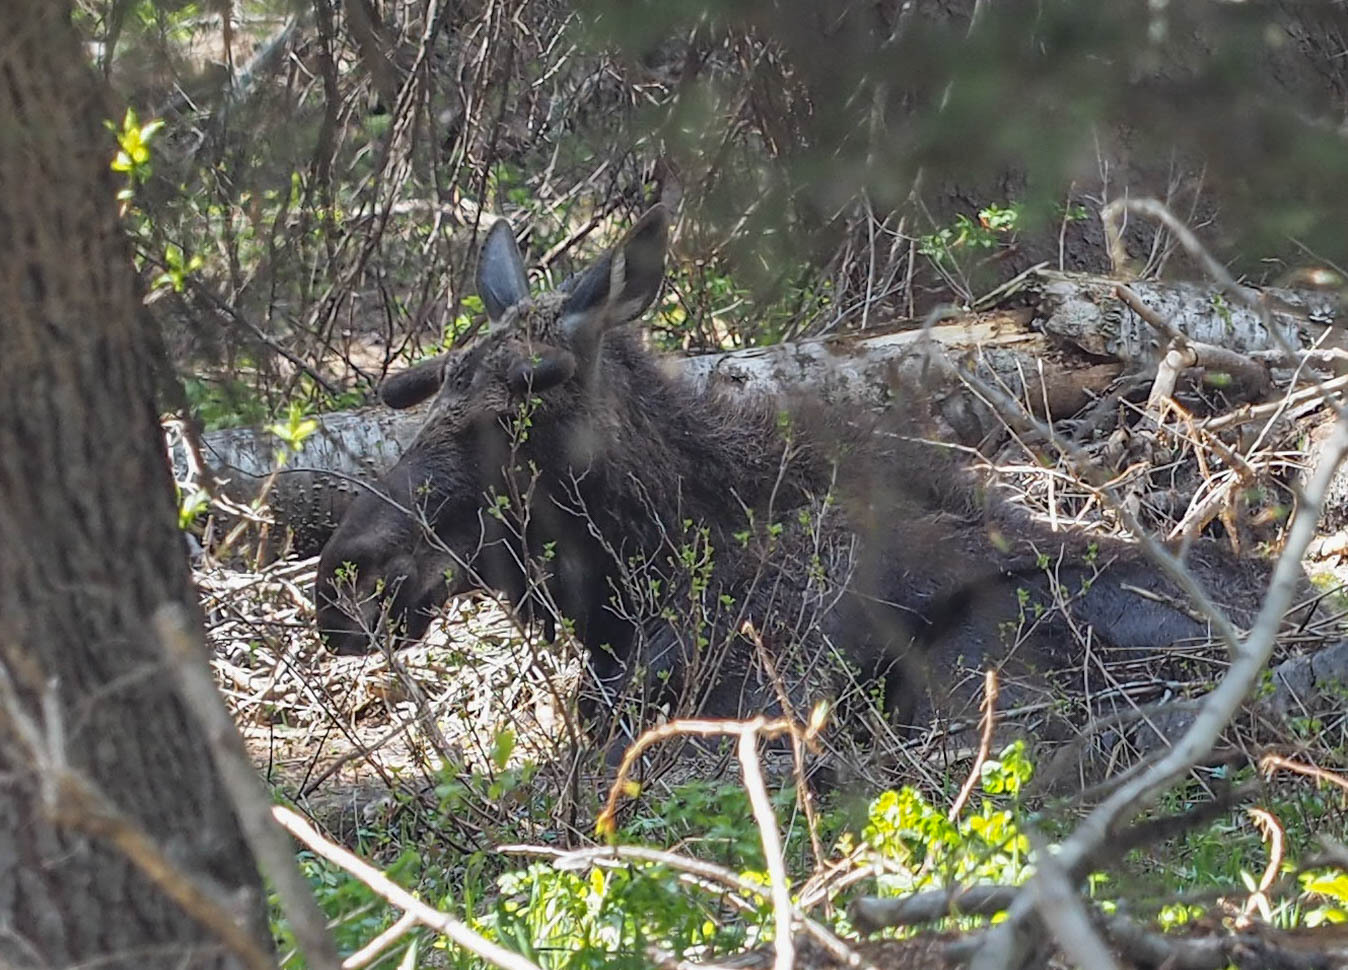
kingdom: Animalia
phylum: Chordata
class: Mammalia
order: Artiodactyla
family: Cervidae
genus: Alces
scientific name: Alces alces
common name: Moose
